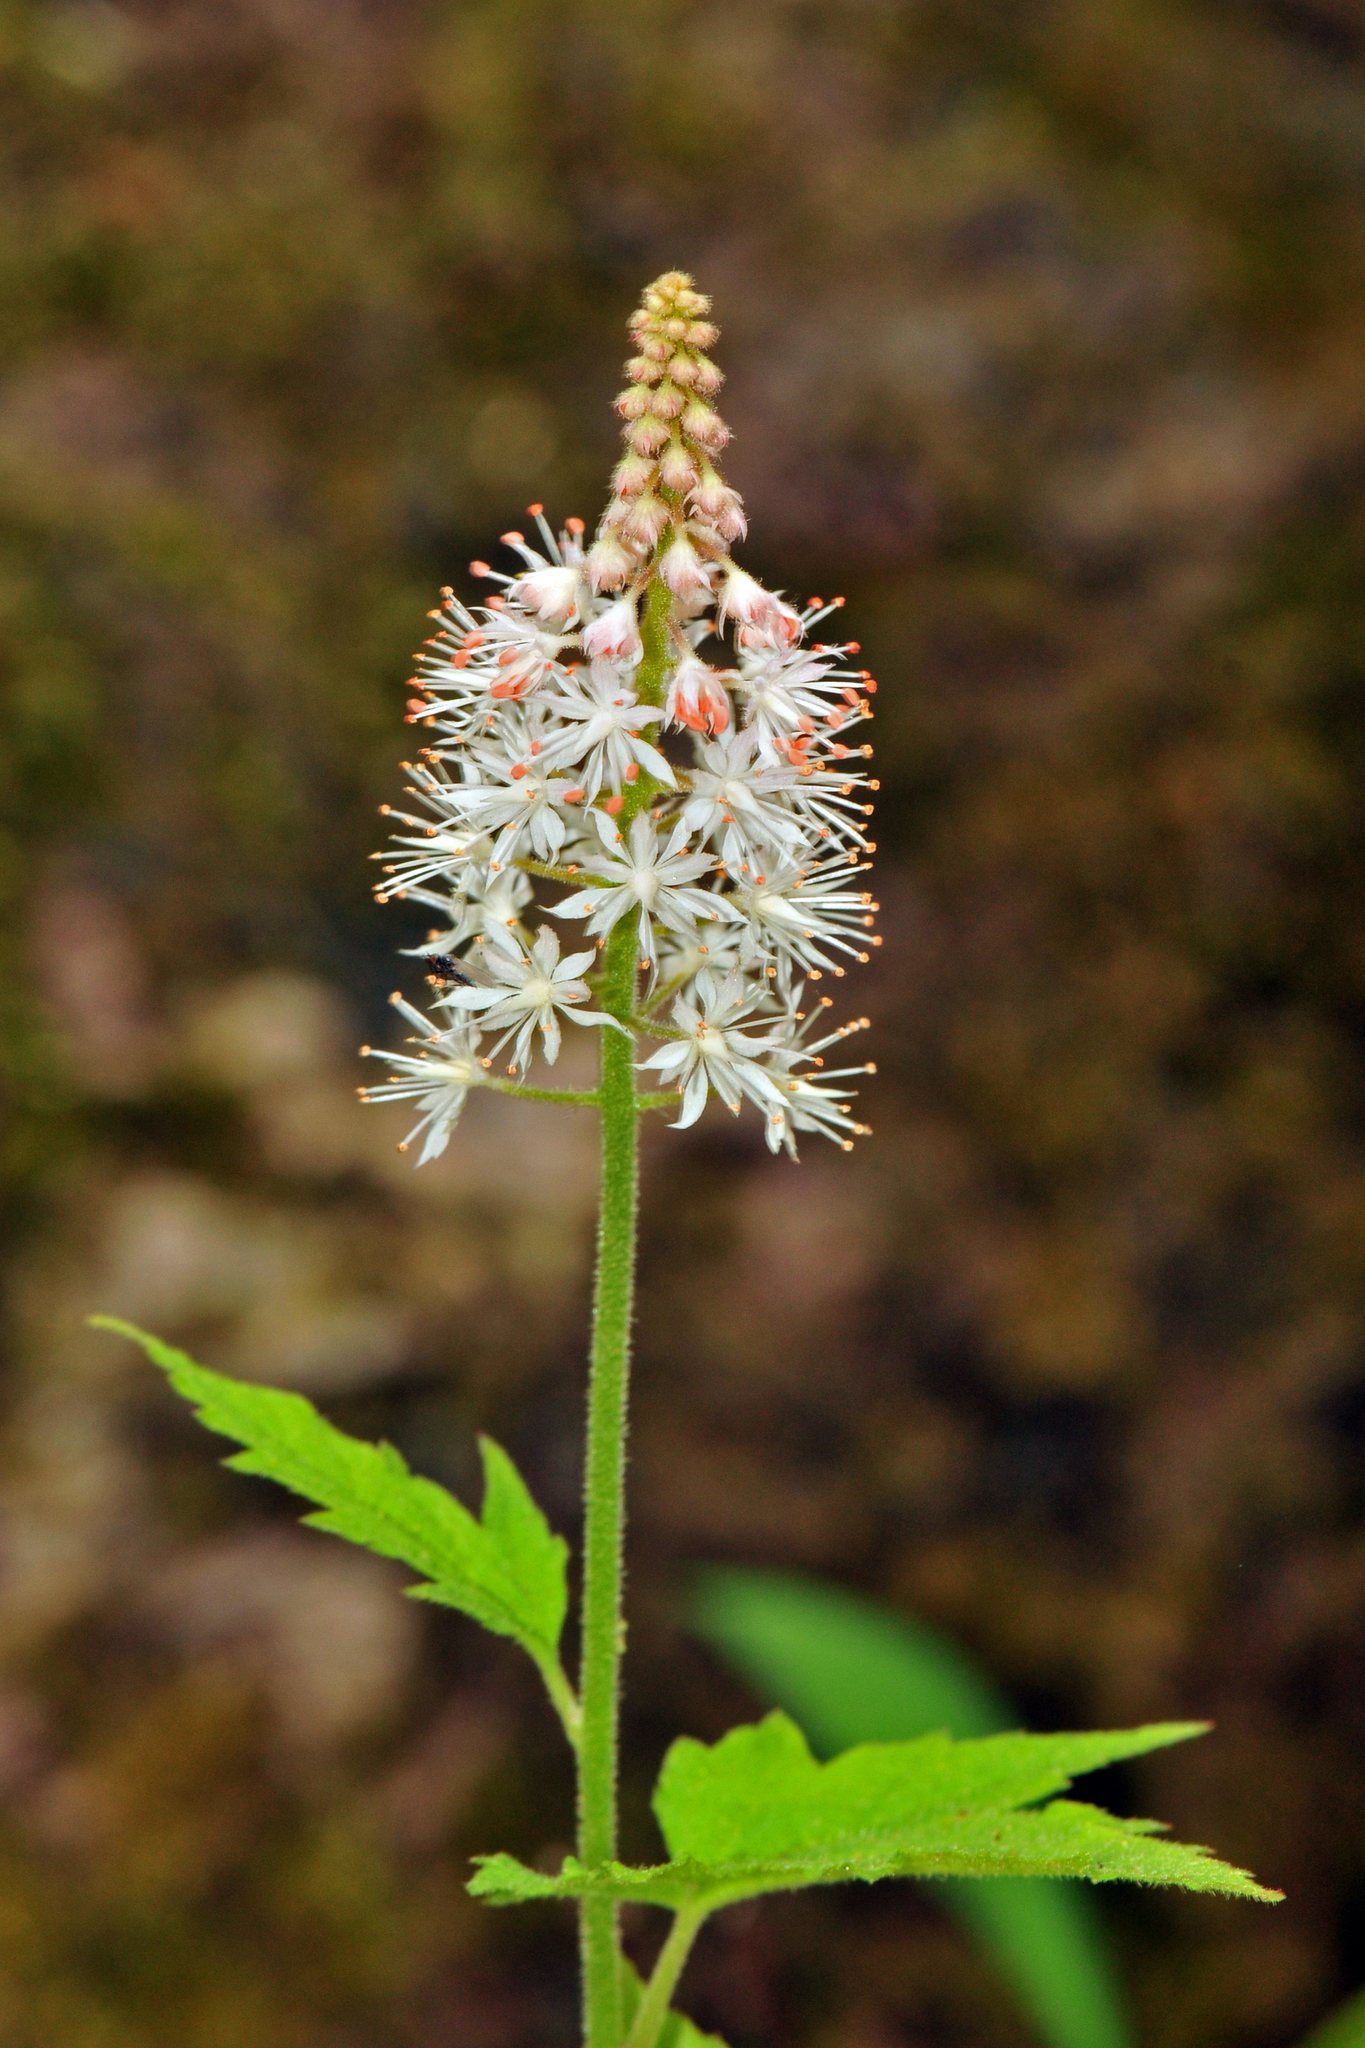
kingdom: Plantae
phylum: Tracheophyta
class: Magnoliopsida
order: Saxifragales
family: Saxifragaceae
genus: Tiarella
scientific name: Tiarella nautila
